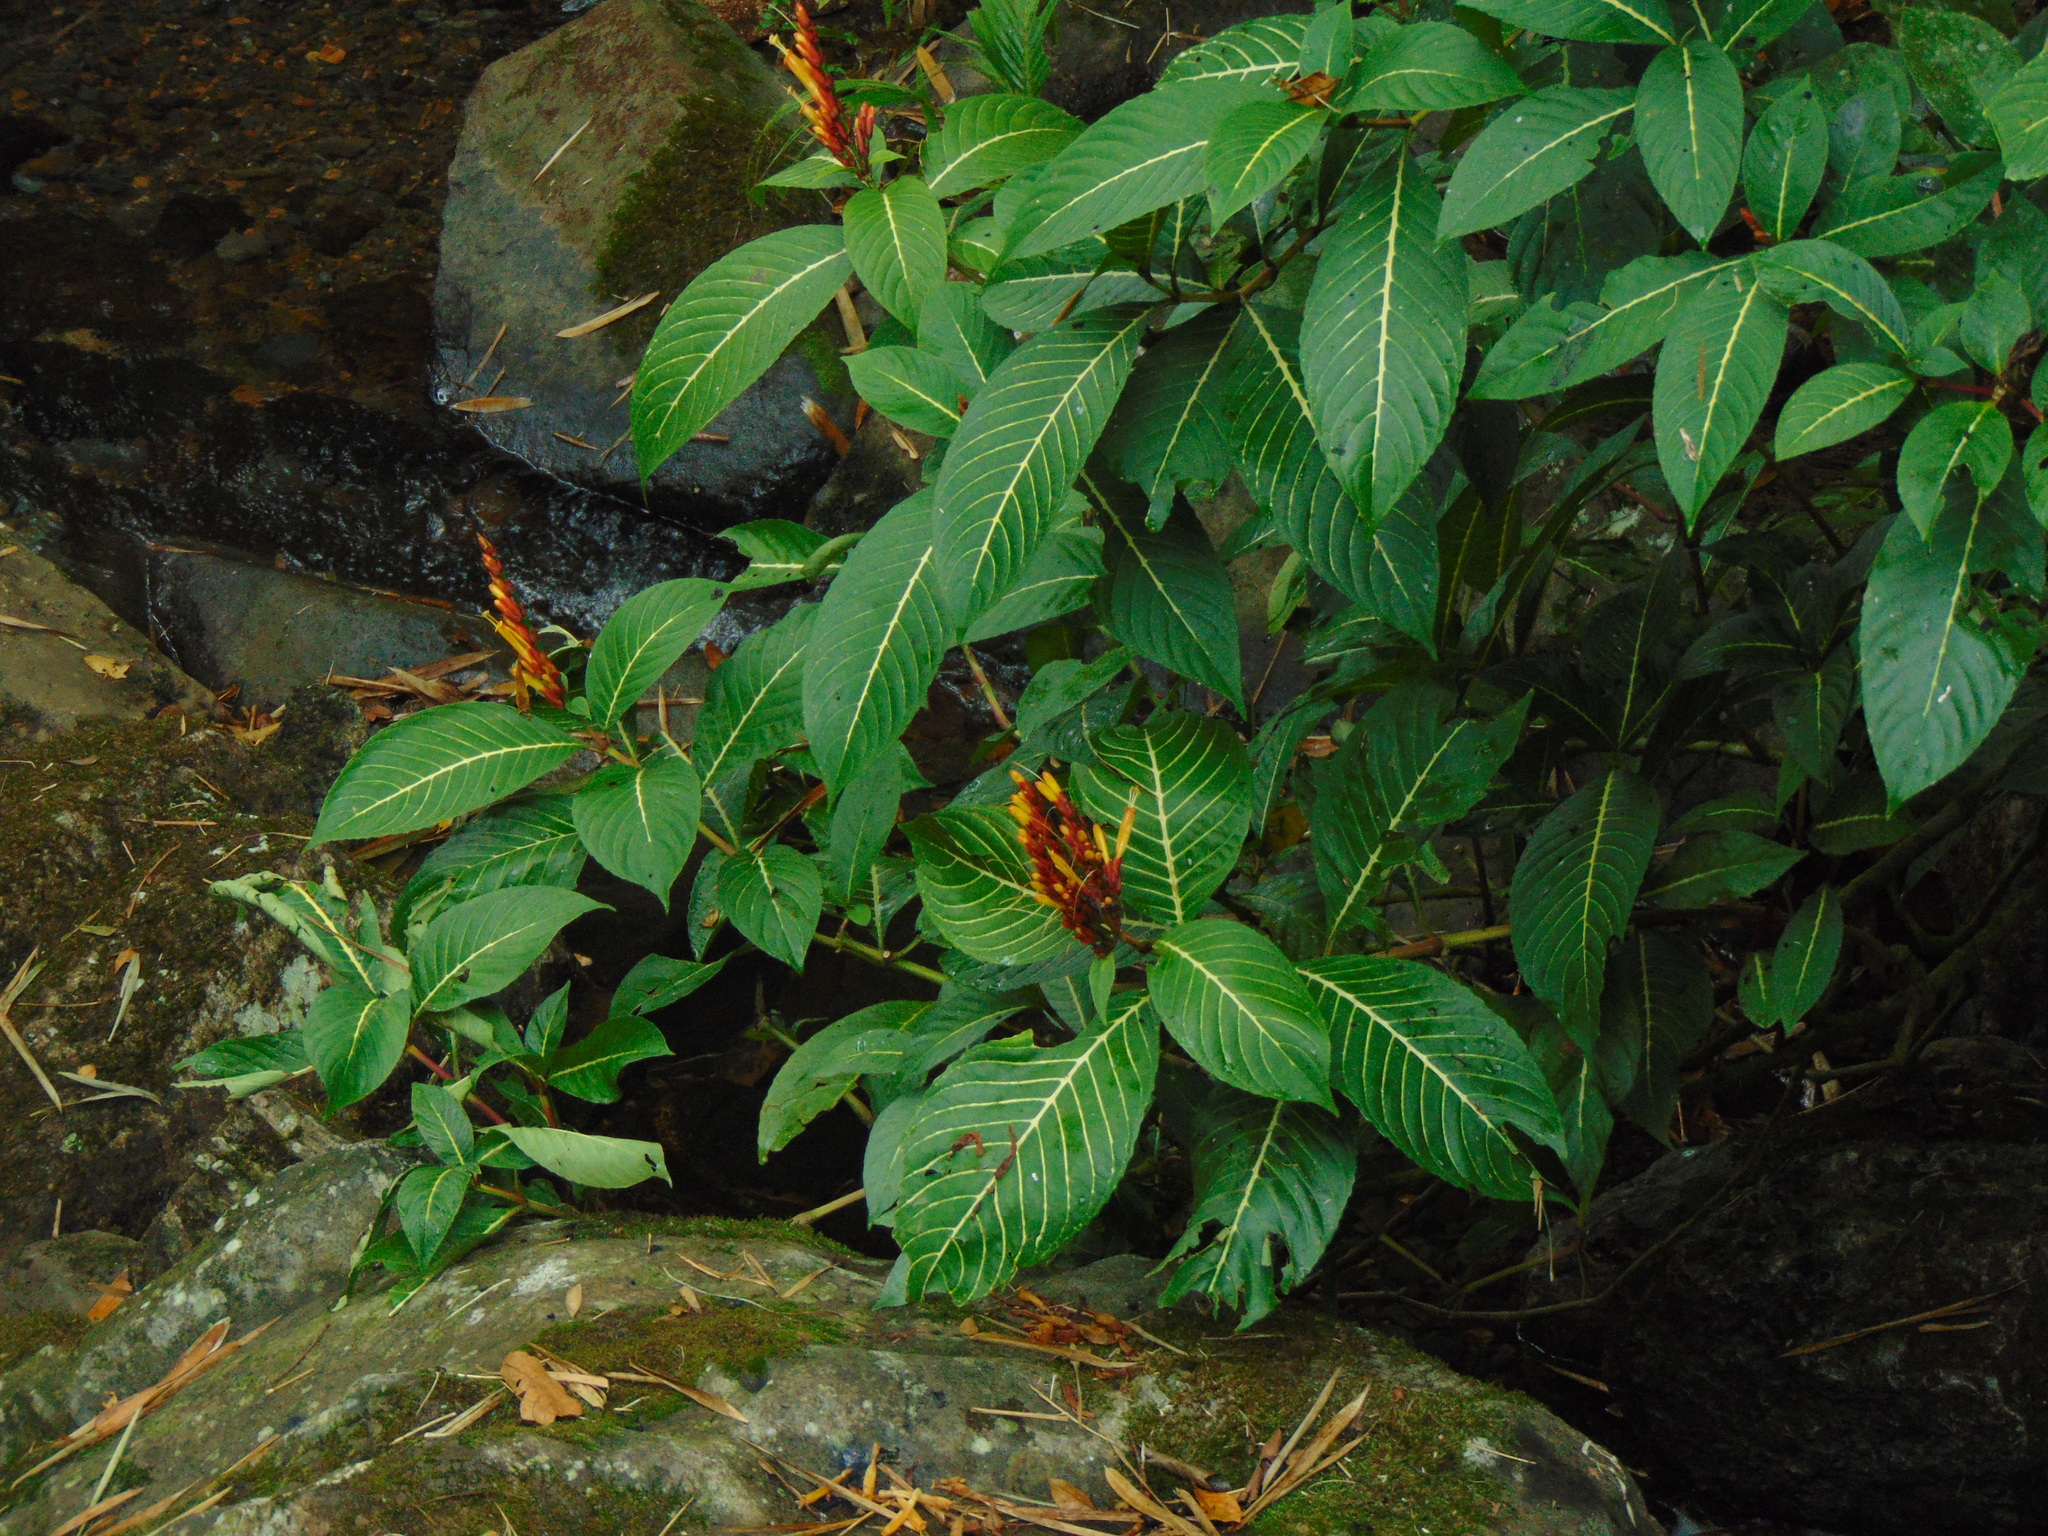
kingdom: Plantae
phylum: Tracheophyta
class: Magnoliopsida
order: Lamiales
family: Acanthaceae
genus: Sanchezia
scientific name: Sanchezia parvibracteata
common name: Sanchezia
